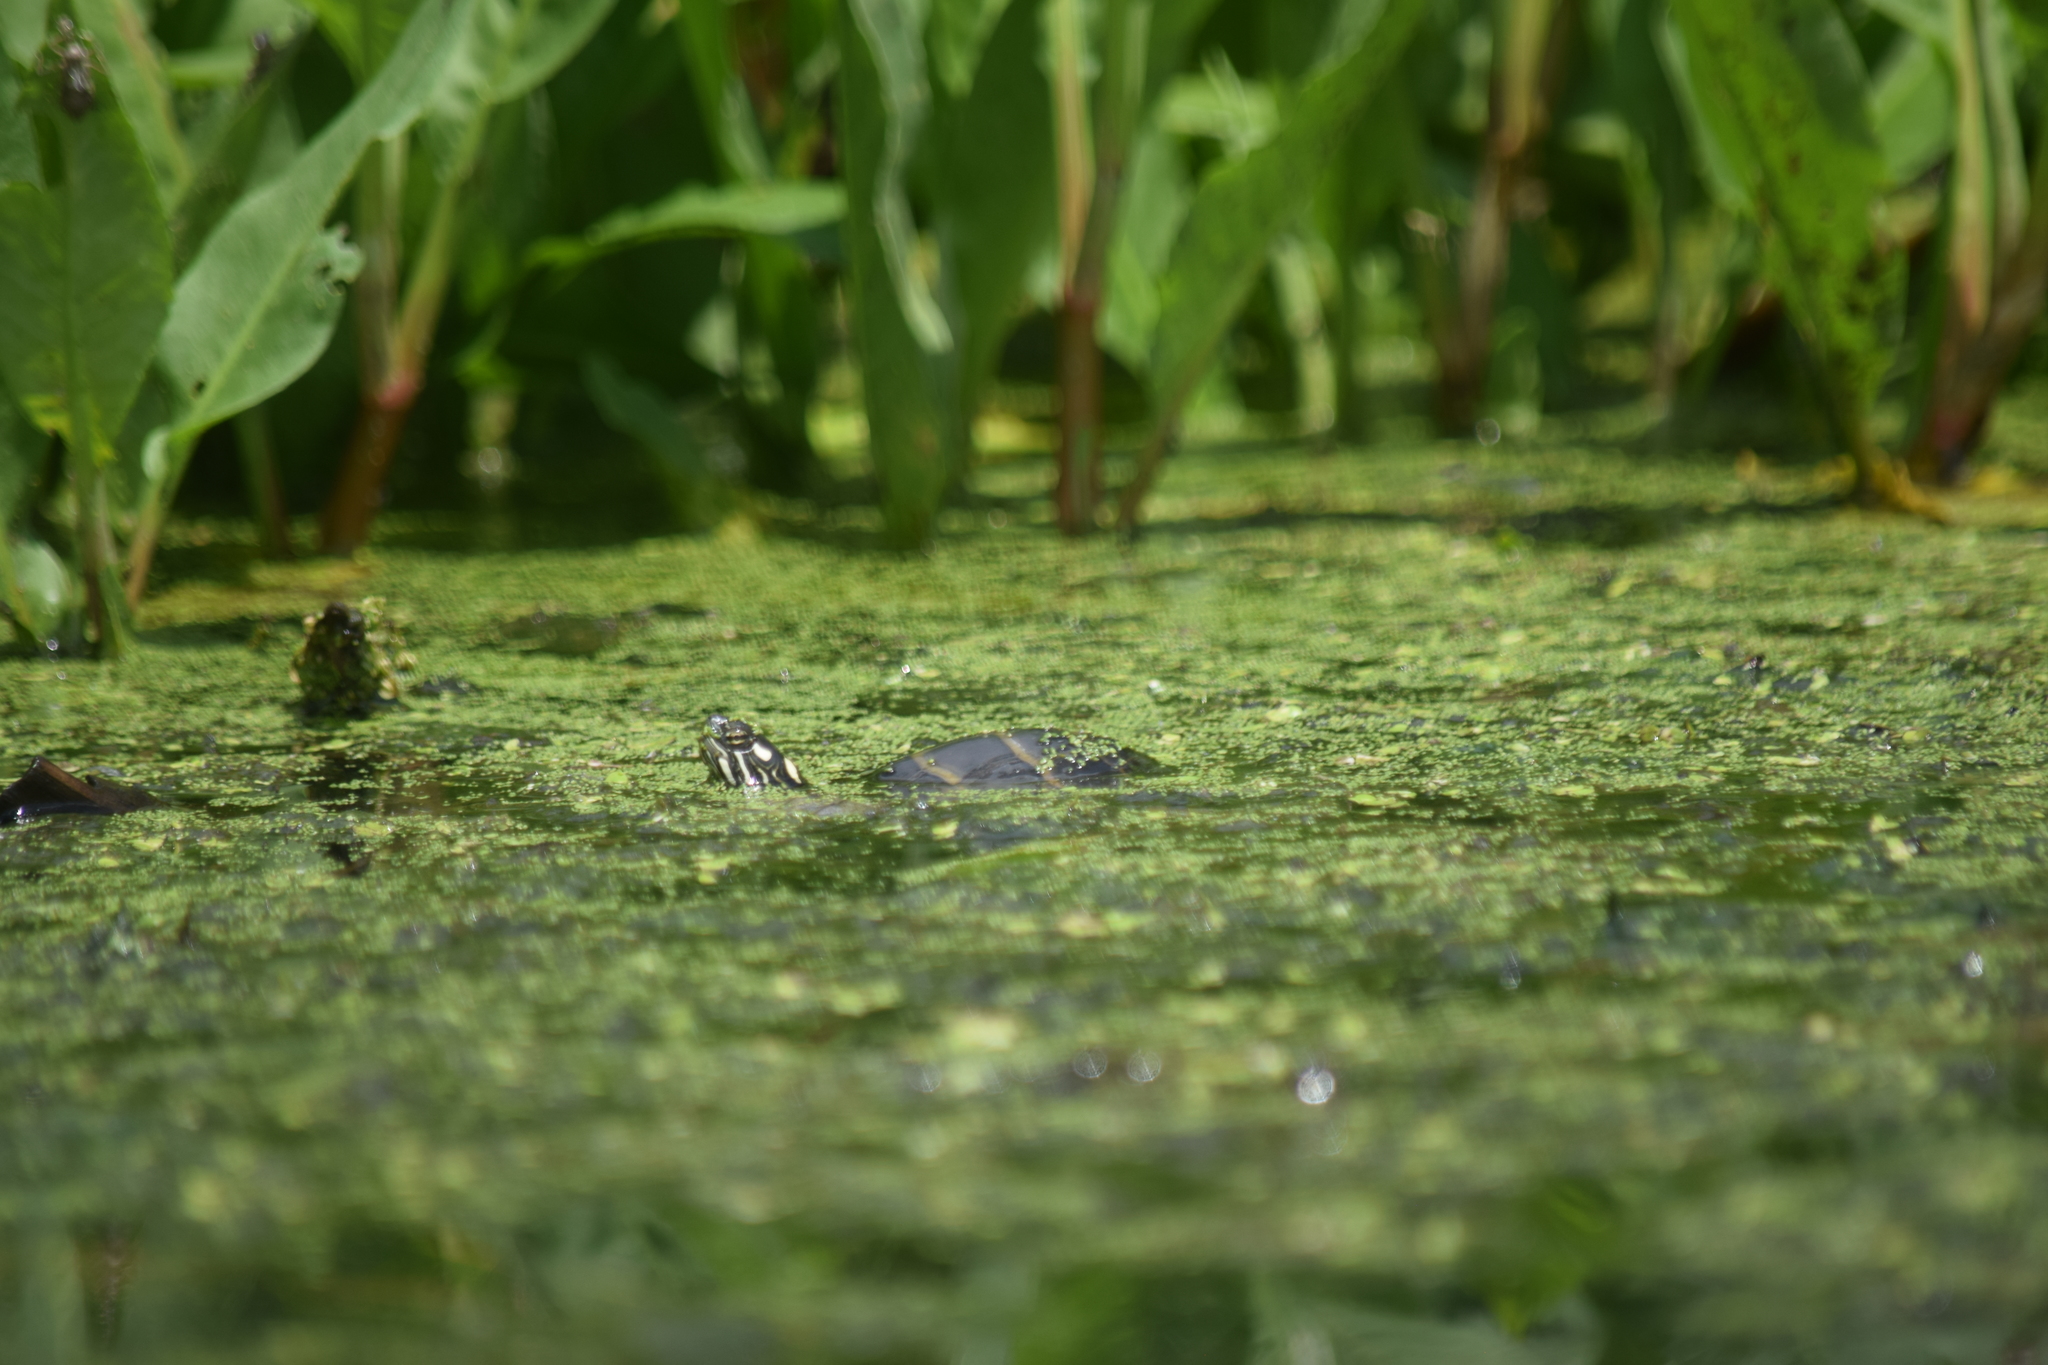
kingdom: Animalia
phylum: Chordata
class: Testudines
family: Emydidae
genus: Chrysemys
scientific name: Chrysemys picta
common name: Painted turtle
